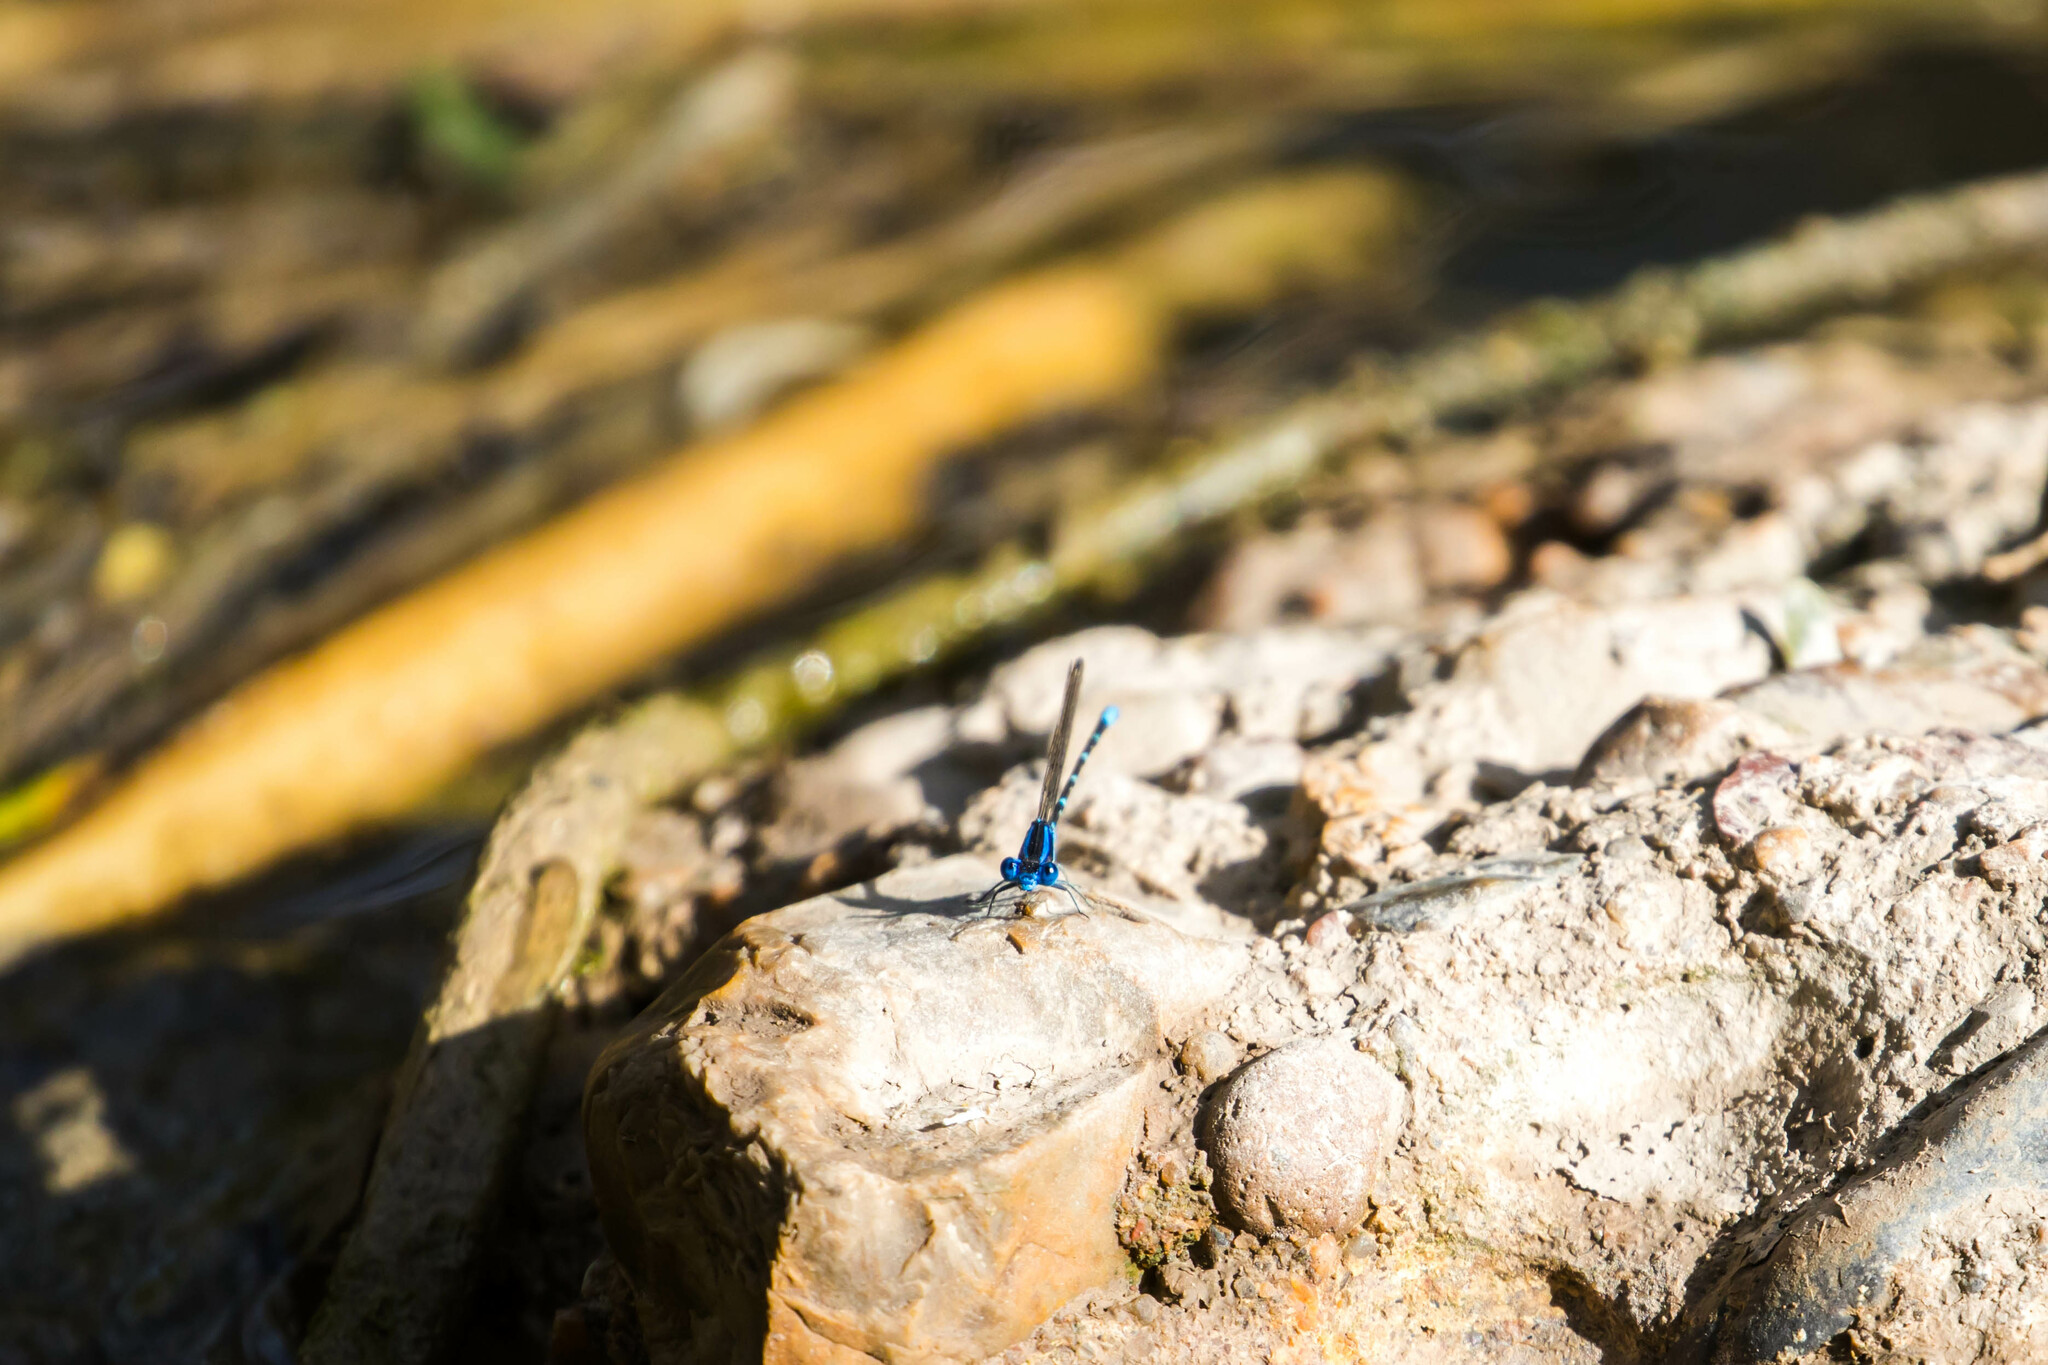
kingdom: Animalia
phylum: Arthropoda
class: Insecta
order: Odonata
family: Coenagrionidae
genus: Argia
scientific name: Argia sedula
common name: Blue-ringed dancer
